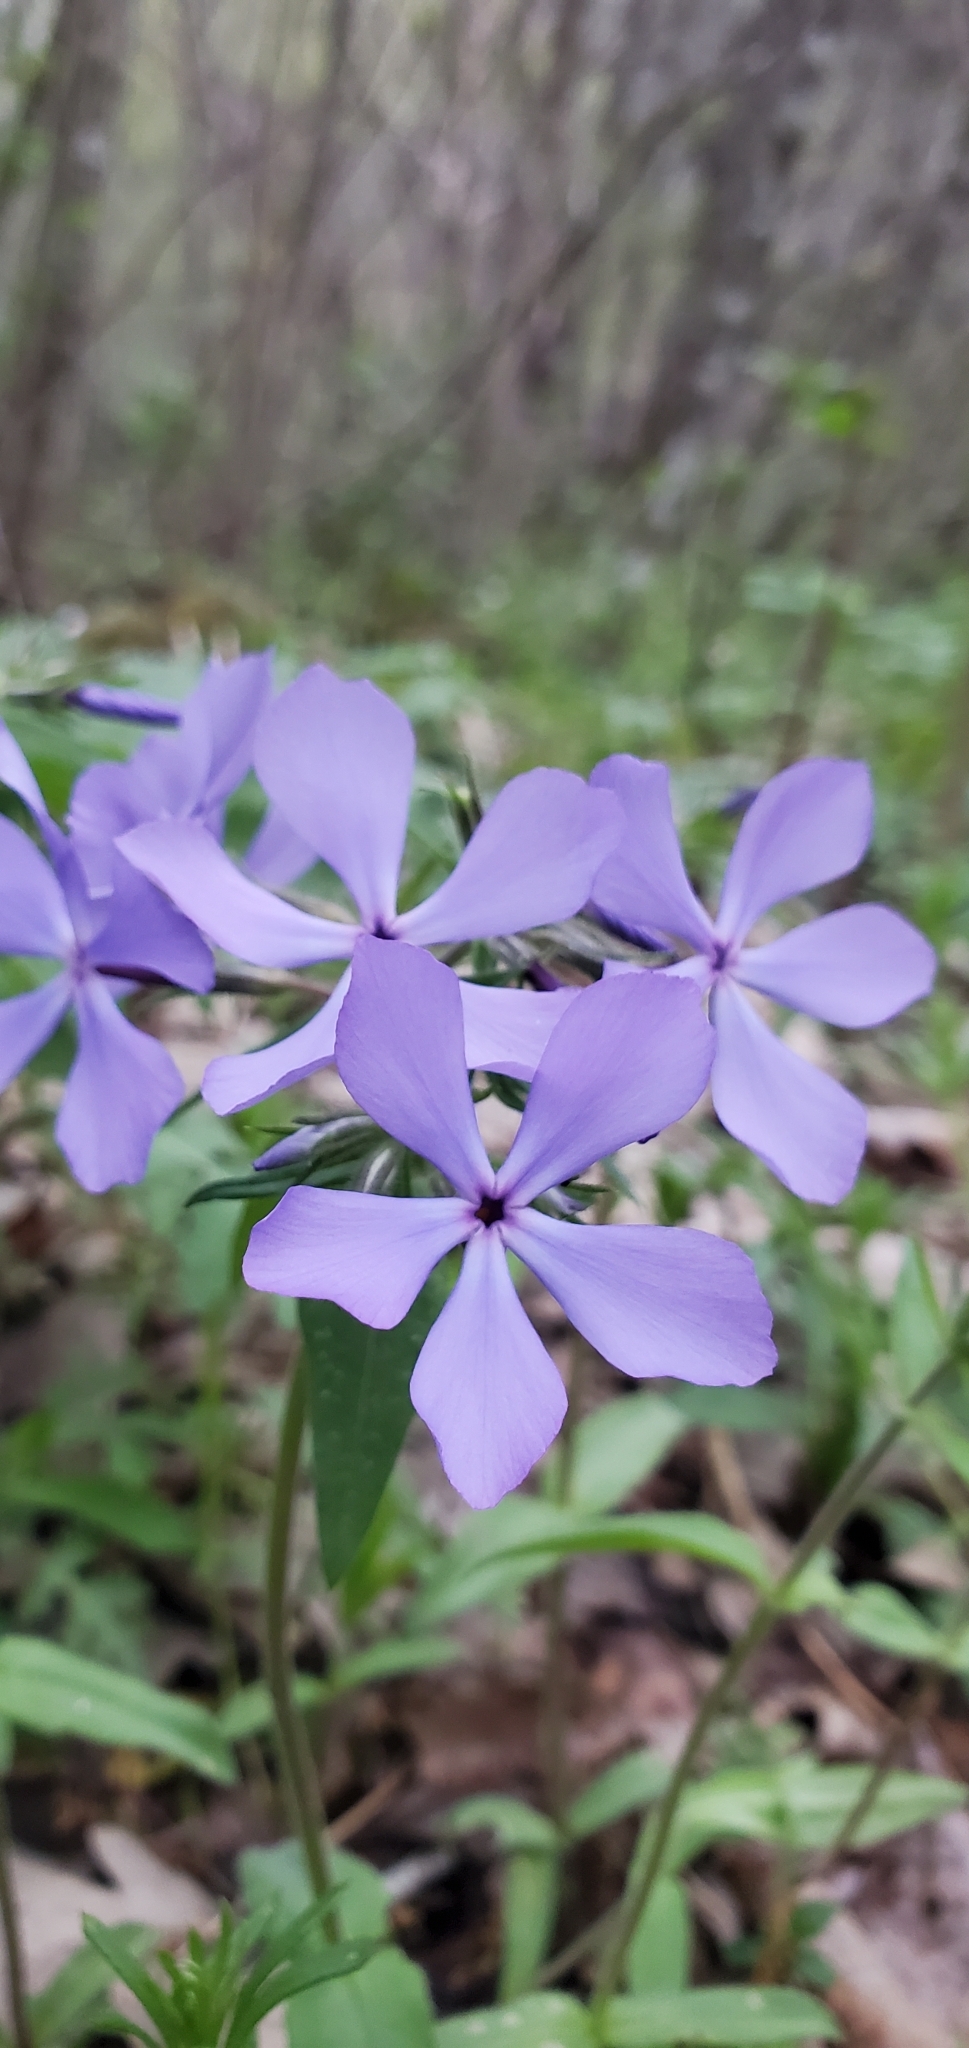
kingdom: Plantae
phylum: Tracheophyta
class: Magnoliopsida
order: Ericales
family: Polemoniaceae
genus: Phlox
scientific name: Phlox divaricata
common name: Blue phlox
